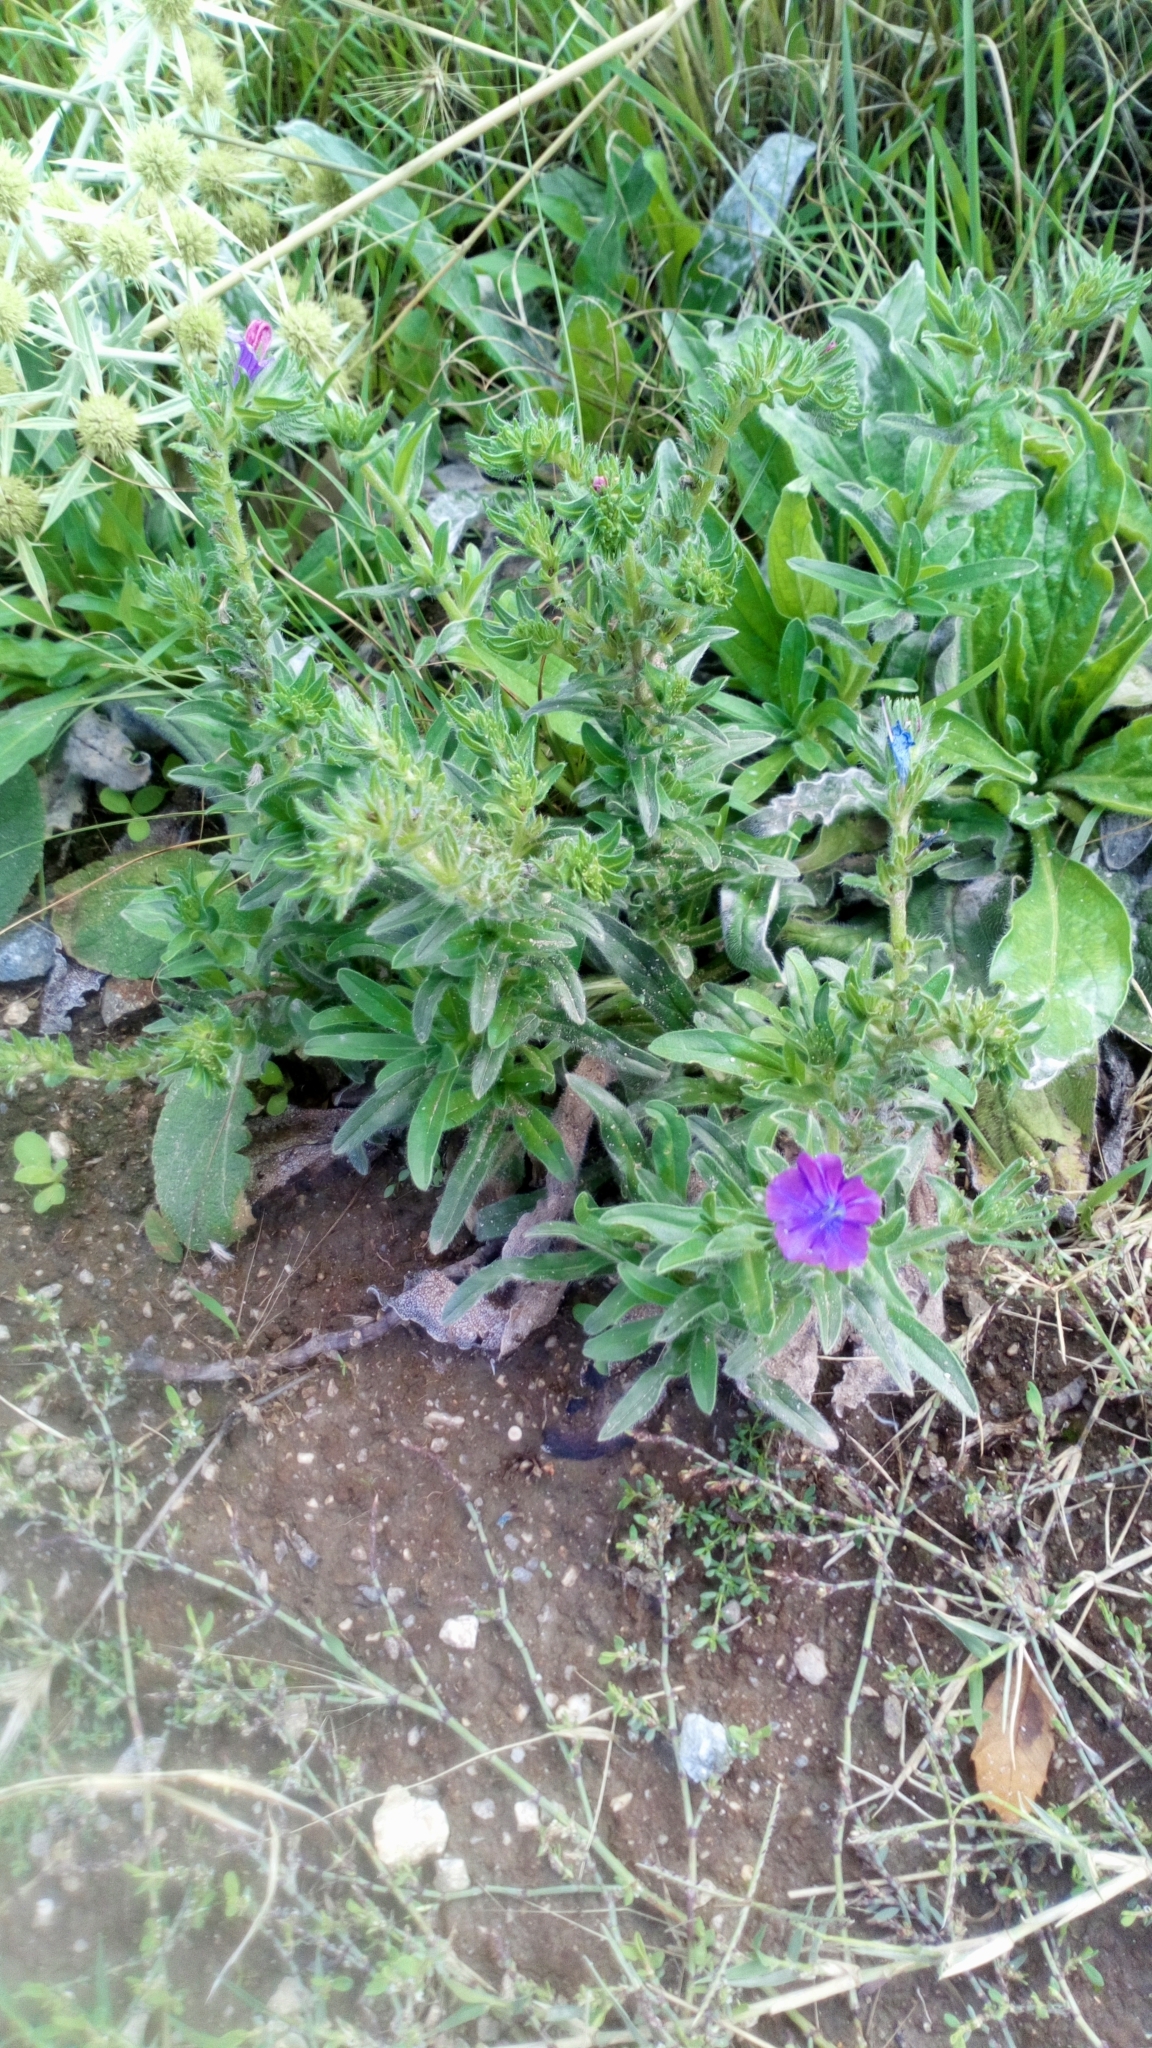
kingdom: Plantae
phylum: Tracheophyta
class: Magnoliopsida
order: Boraginales
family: Boraginaceae
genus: Echium
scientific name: Echium plantagineum
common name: Purple viper's-bugloss
